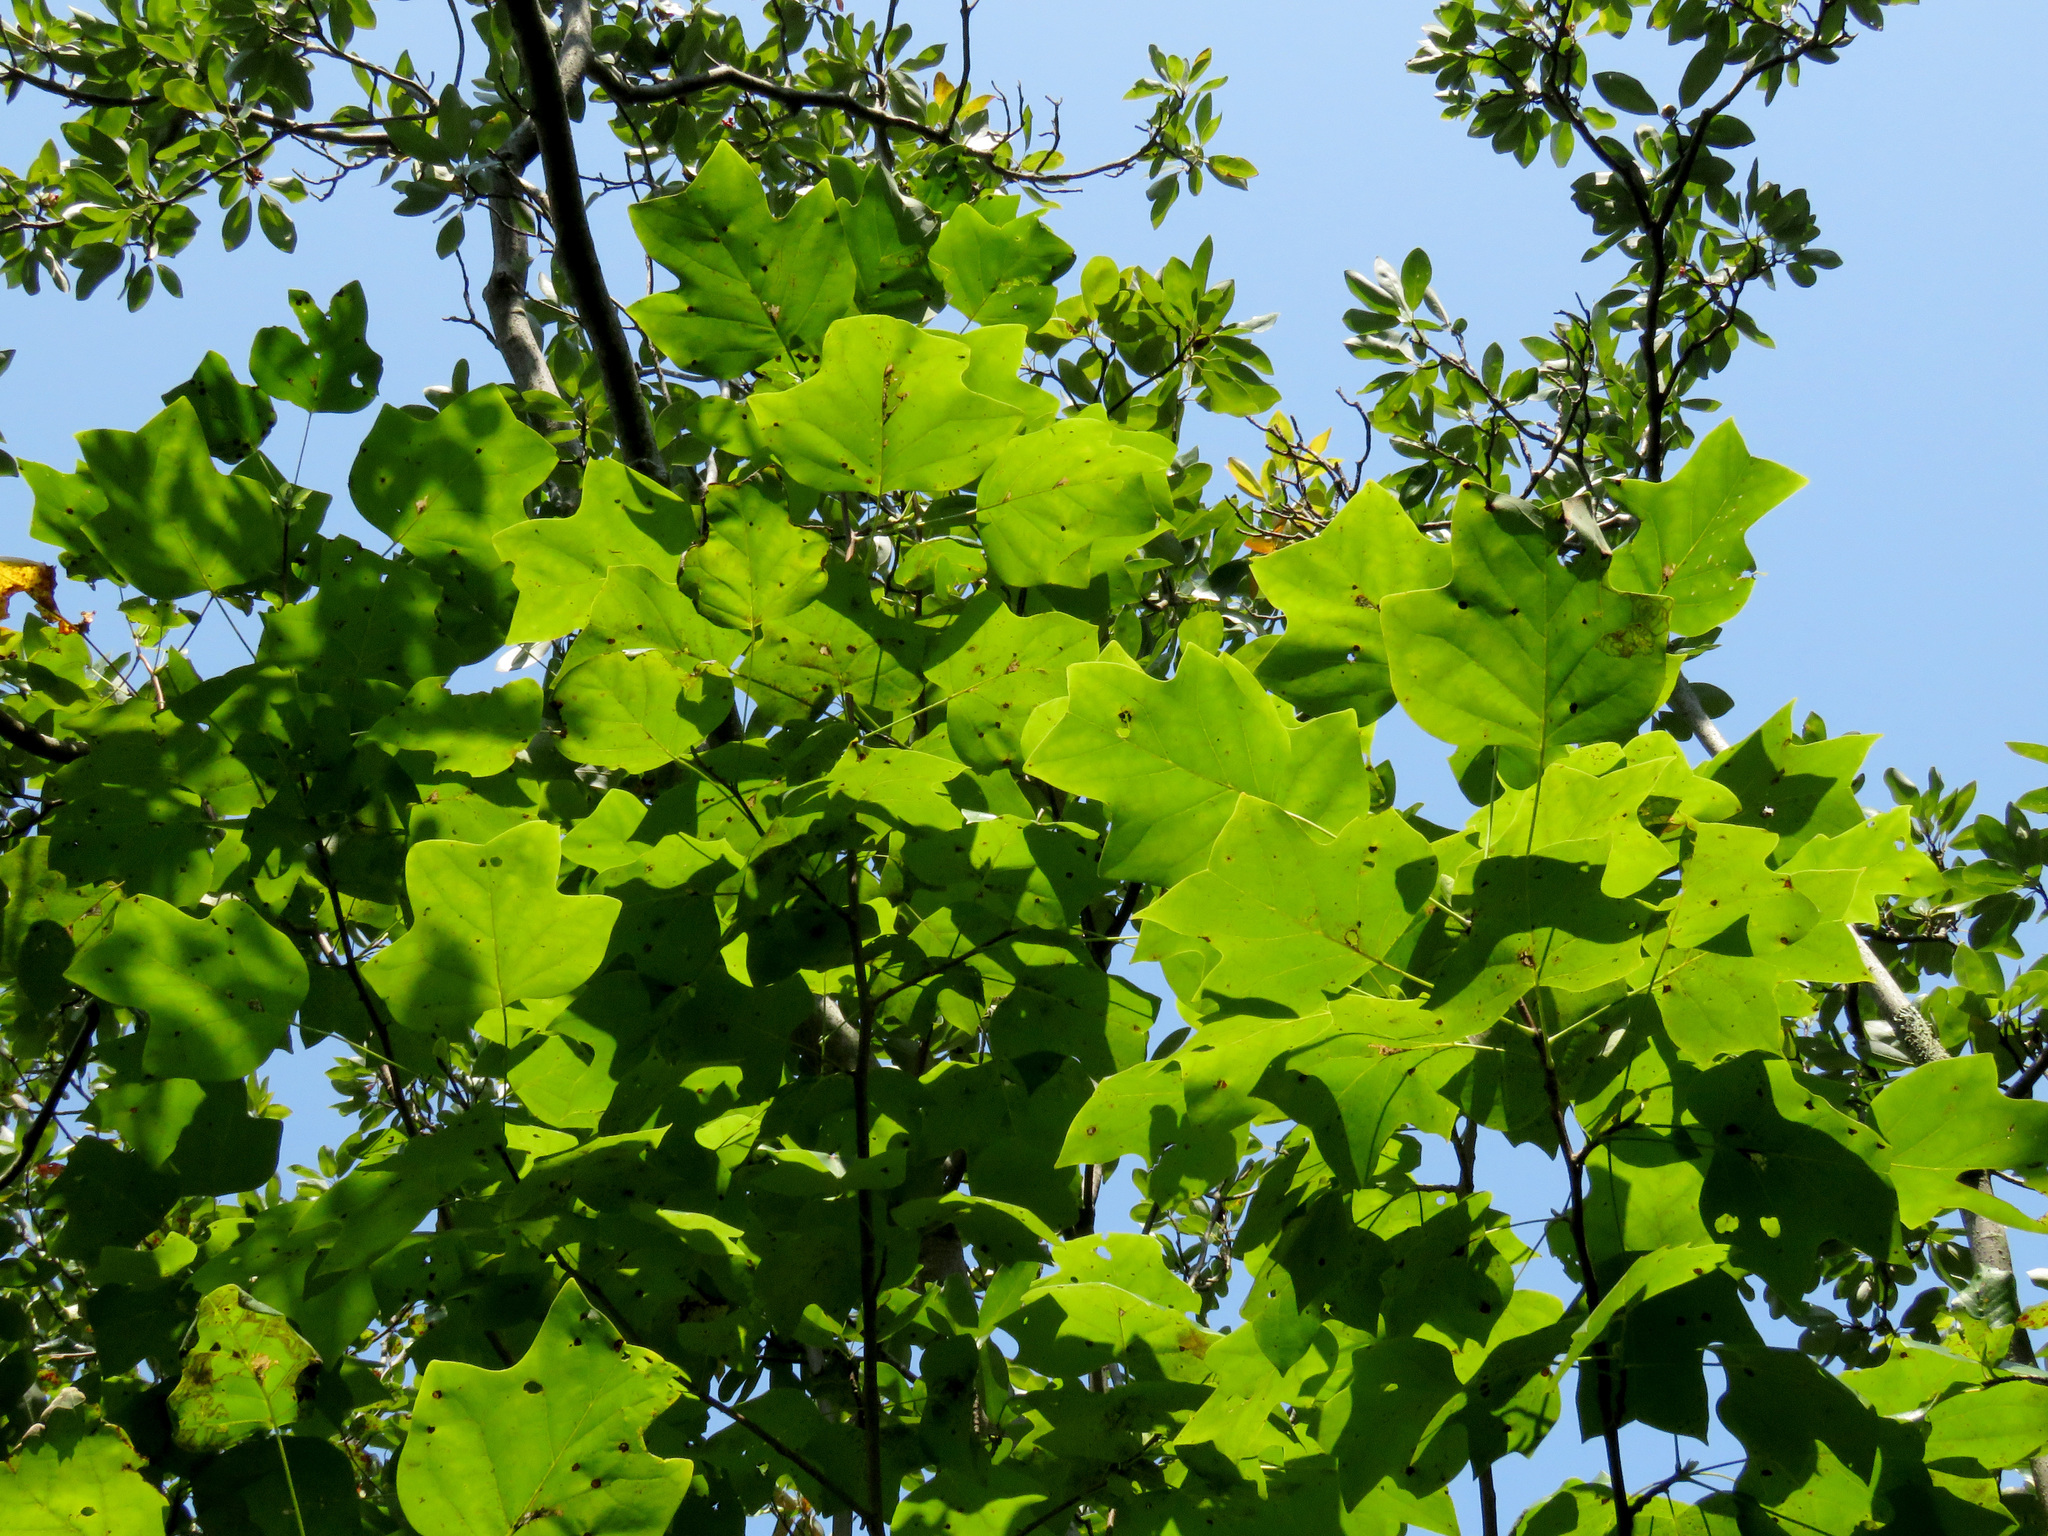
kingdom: Plantae
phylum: Tracheophyta
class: Magnoliopsida
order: Magnoliales
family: Magnoliaceae
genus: Liriodendron
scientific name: Liriodendron tulipifera
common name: Tulip tree
